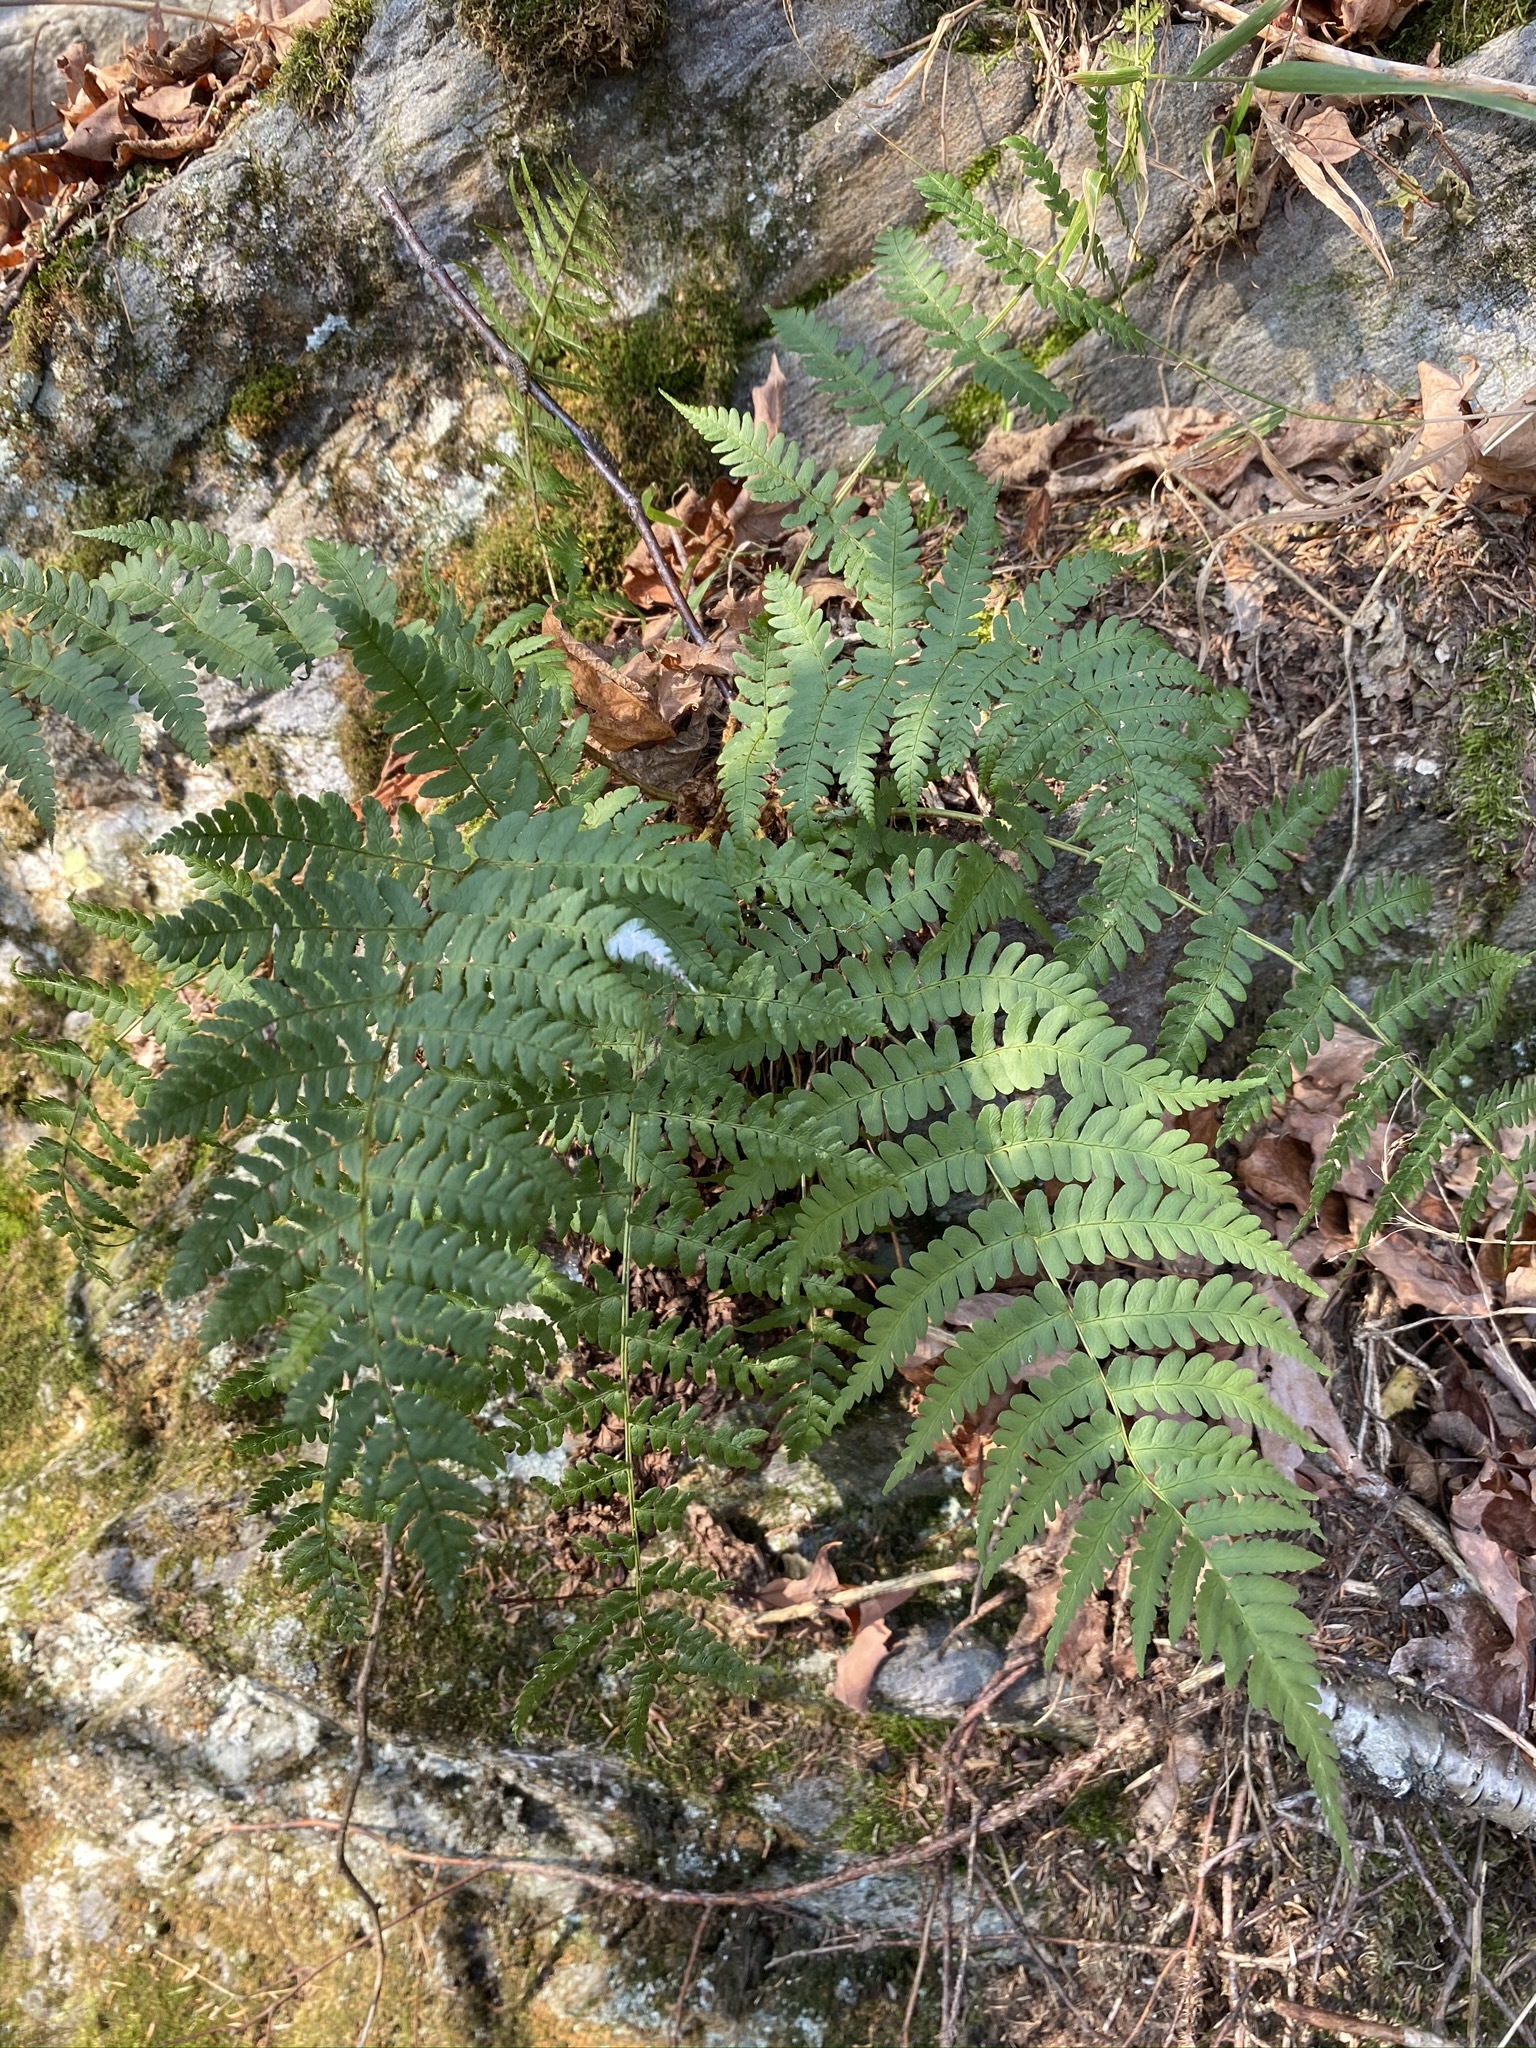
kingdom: Plantae
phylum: Tracheophyta
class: Polypodiopsida
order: Polypodiales
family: Dryopteridaceae
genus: Dryopteris
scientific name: Dryopteris marginalis
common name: Marginal wood fern
